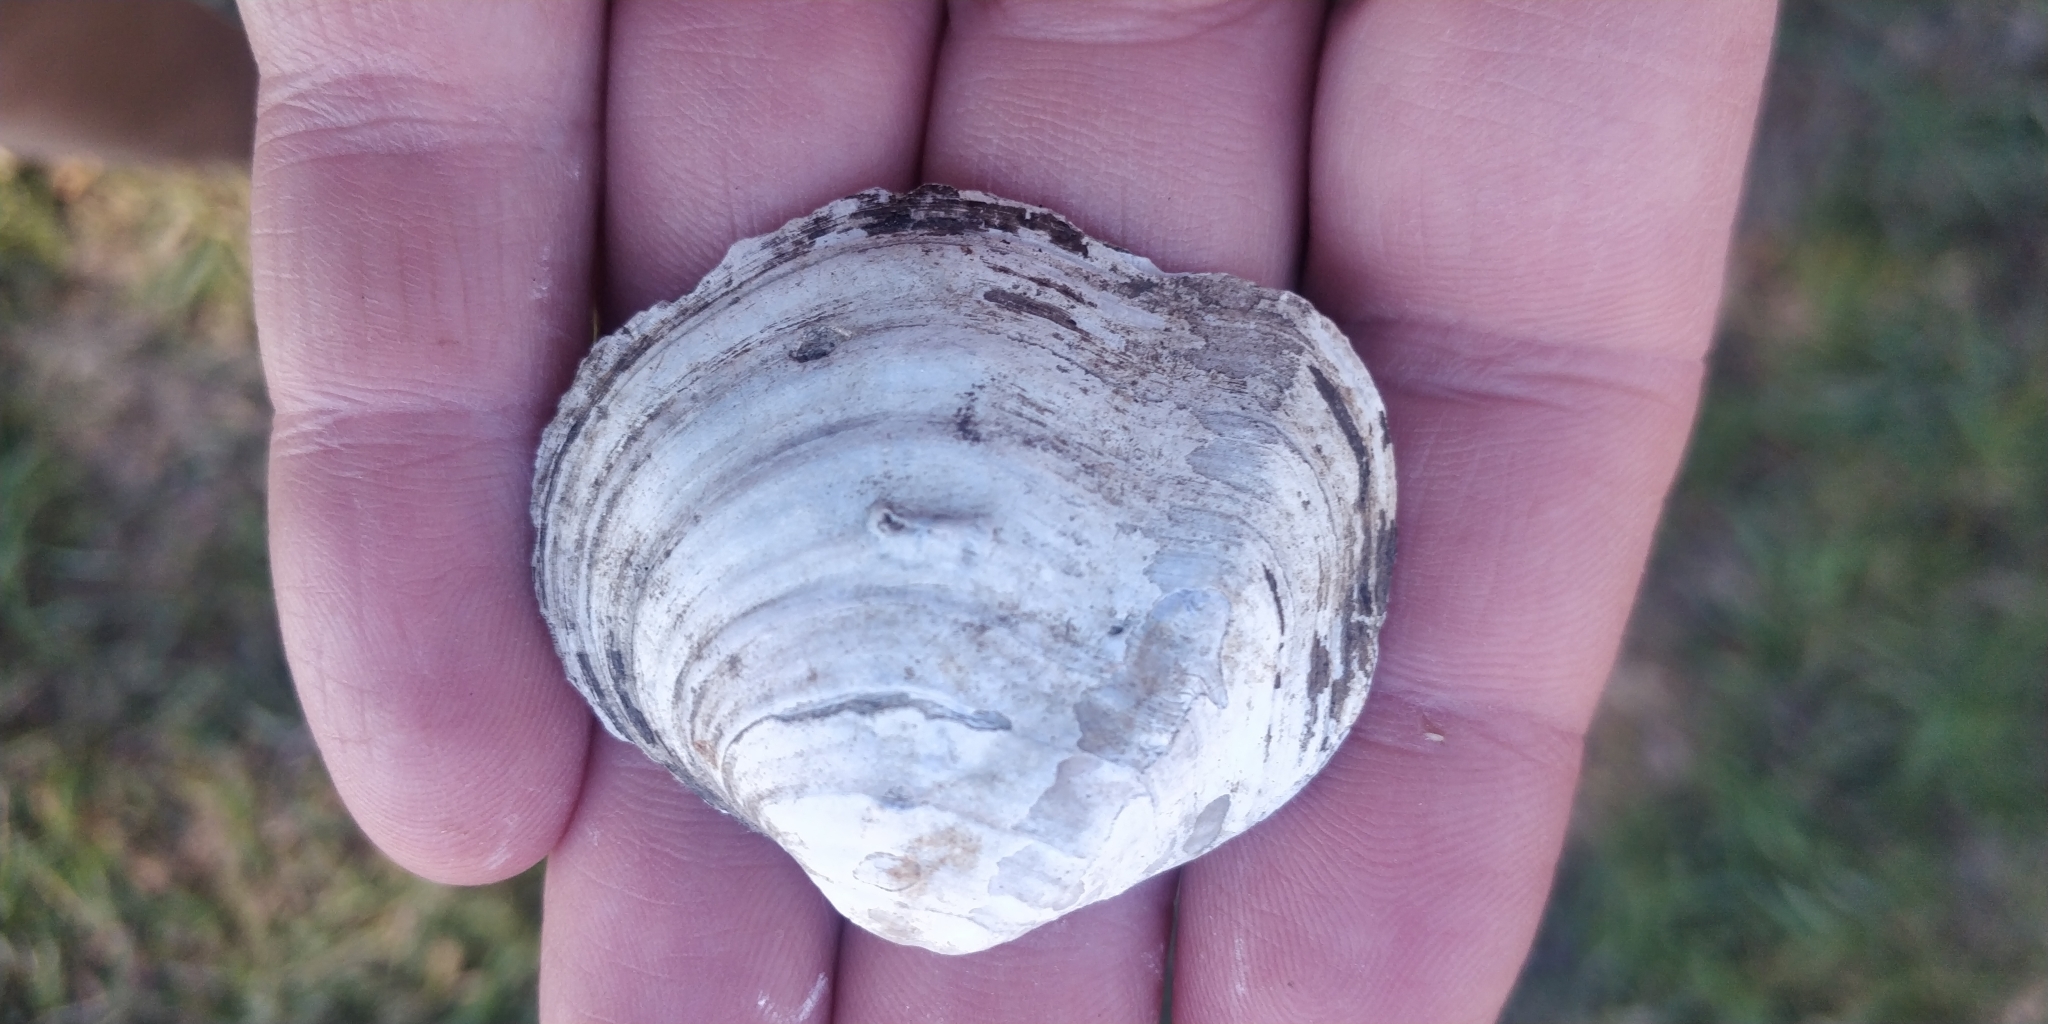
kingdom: Animalia
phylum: Mollusca
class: Bivalvia
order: Unionida
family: Unionidae
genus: Quadrula
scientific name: Quadrula quadrula
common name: Mapleleaf
